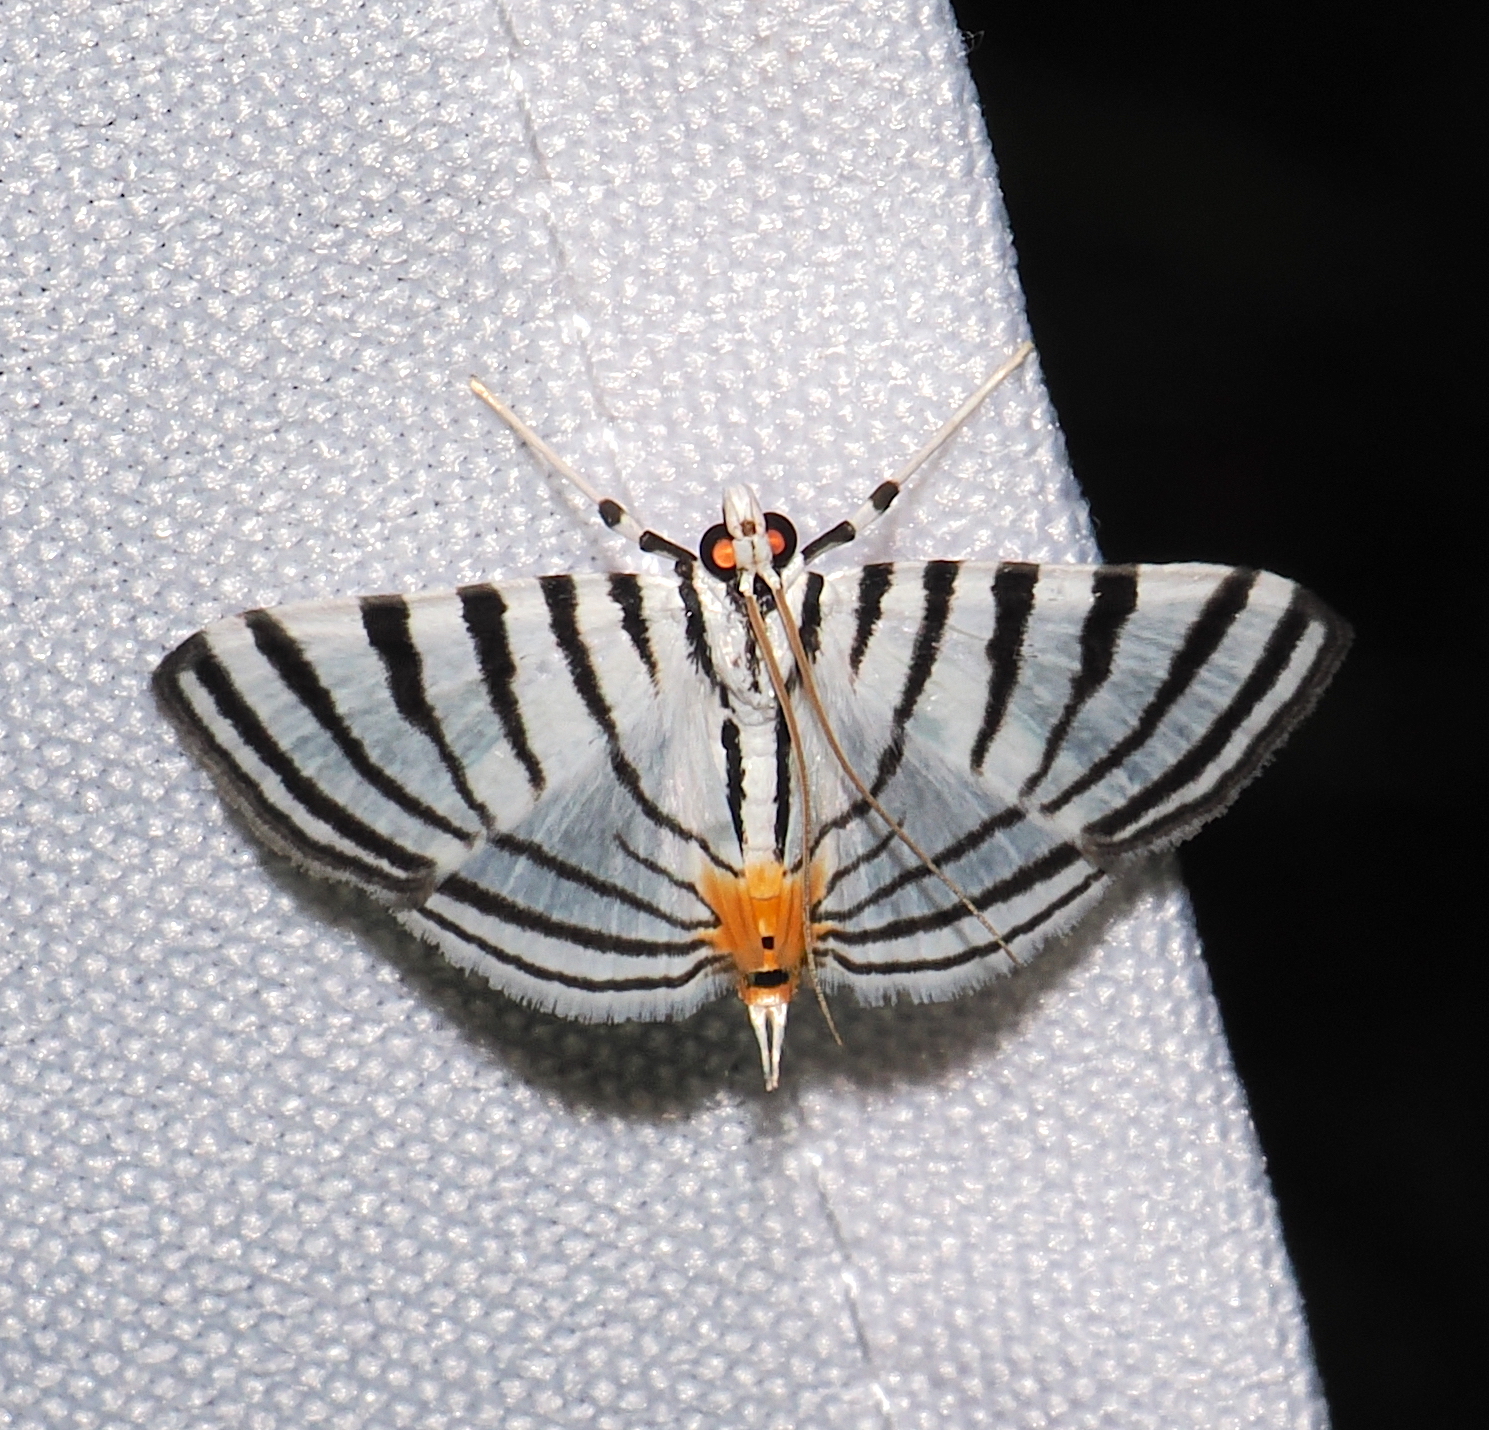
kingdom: Animalia
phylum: Arthropoda
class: Insecta
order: Lepidoptera
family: Crambidae
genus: Conchylodes
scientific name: Conchylodes gammaphora
